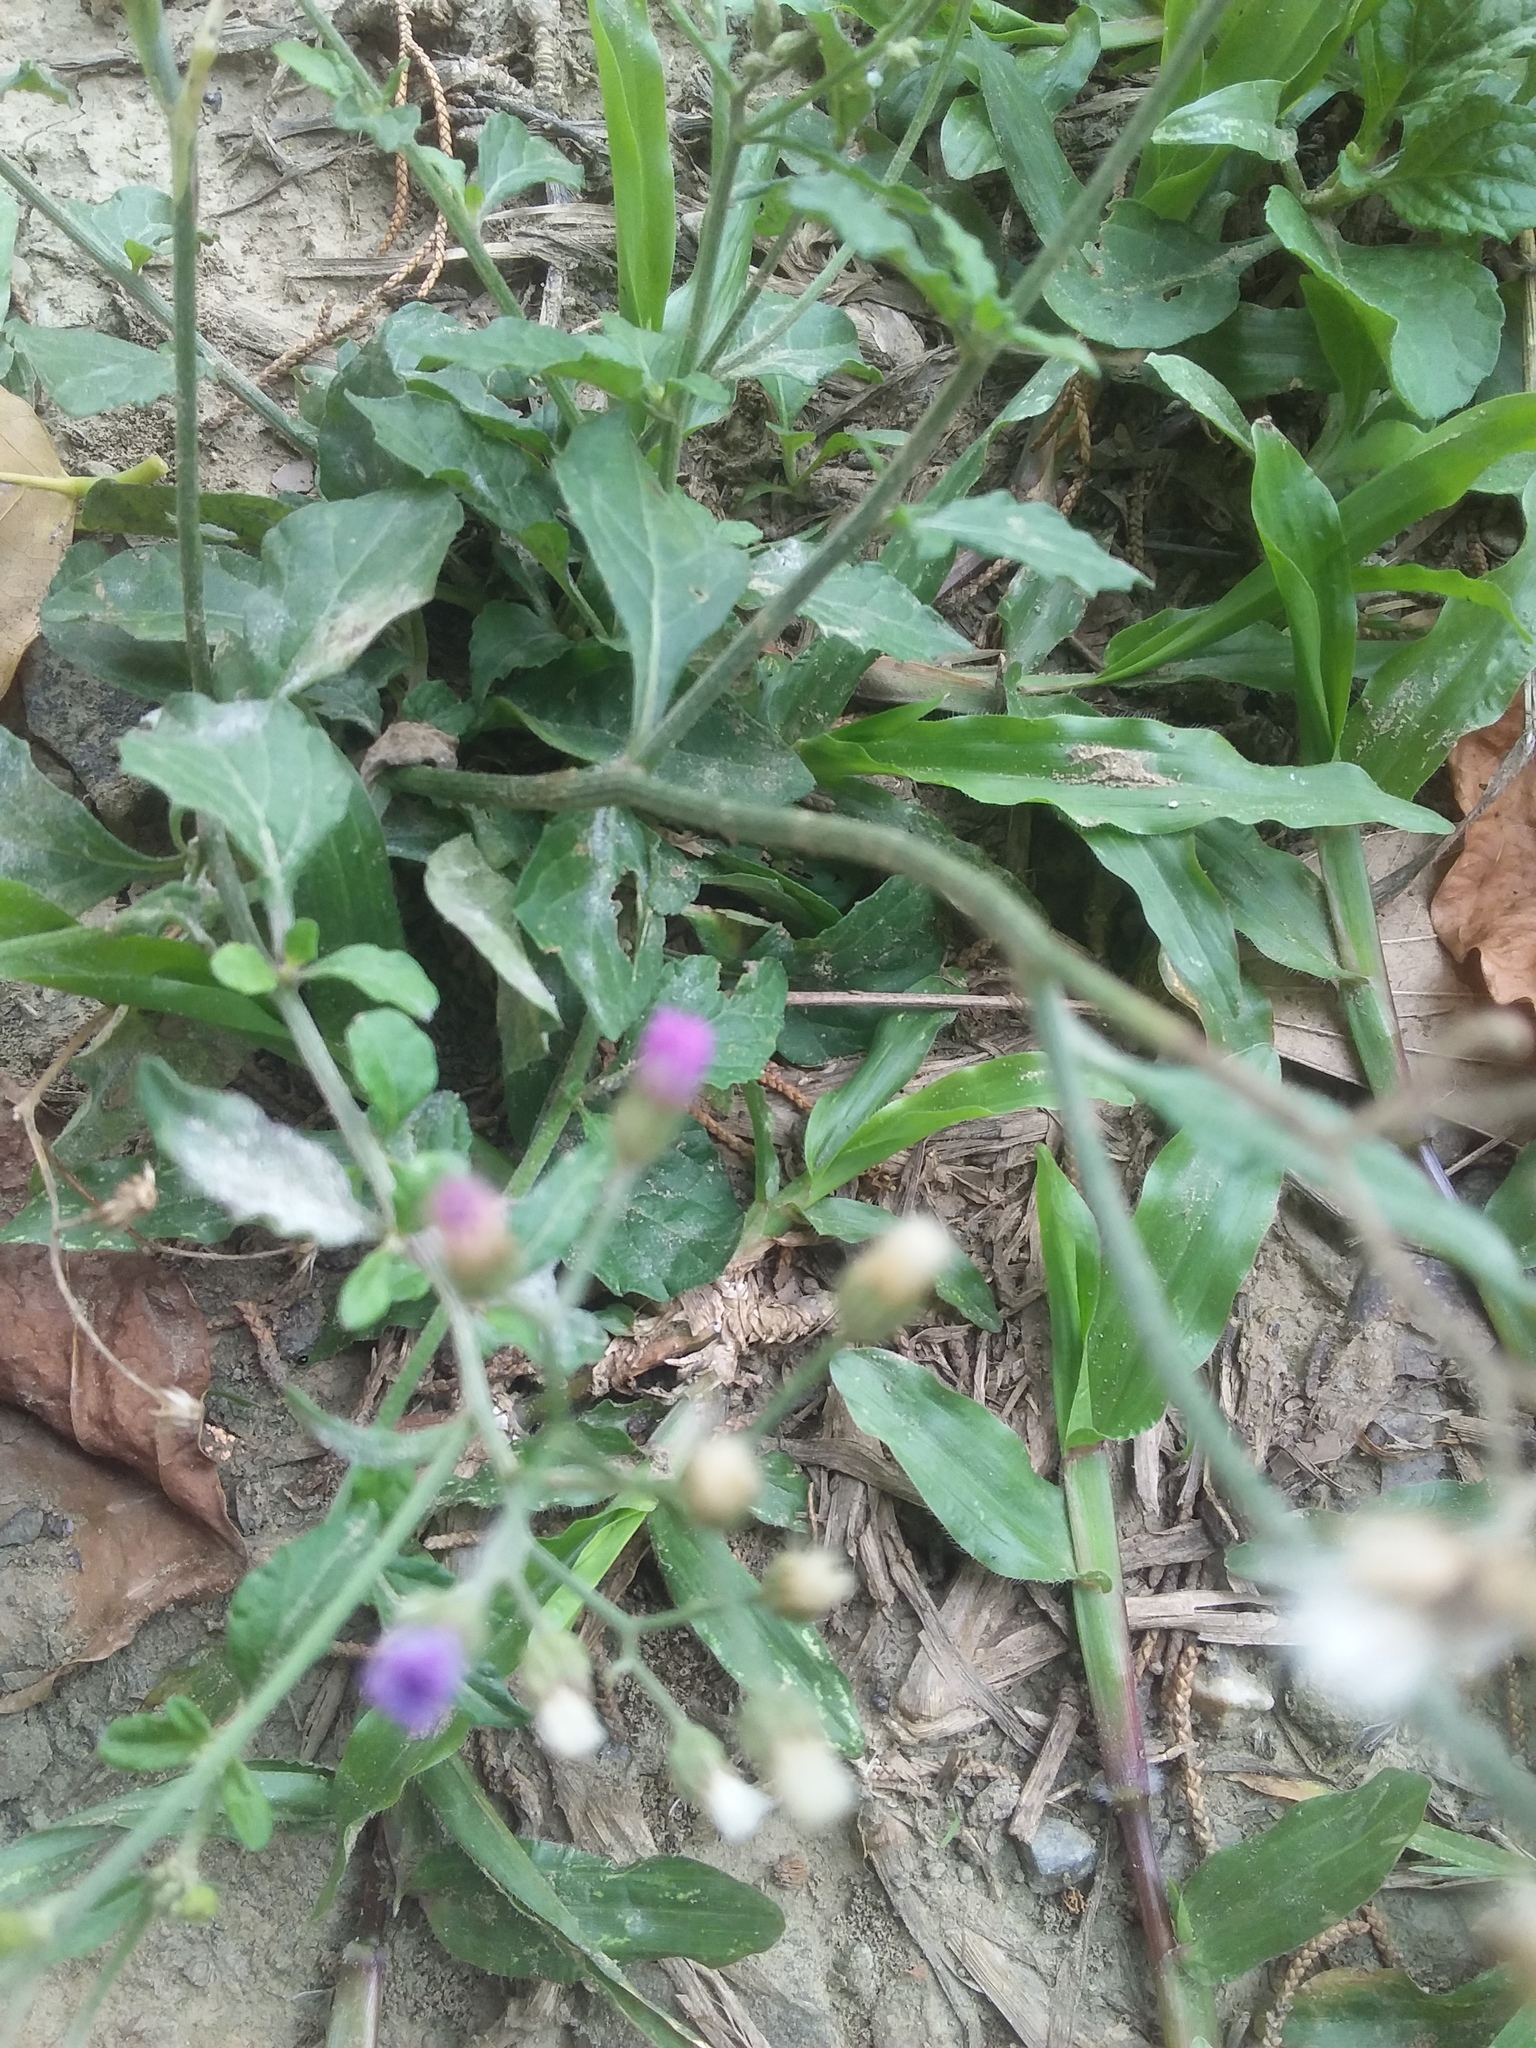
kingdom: Plantae
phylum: Tracheophyta
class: Magnoliopsida
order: Asterales
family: Asteraceae
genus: Cyanthillium
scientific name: Cyanthillium cinereum
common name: Little ironweed
